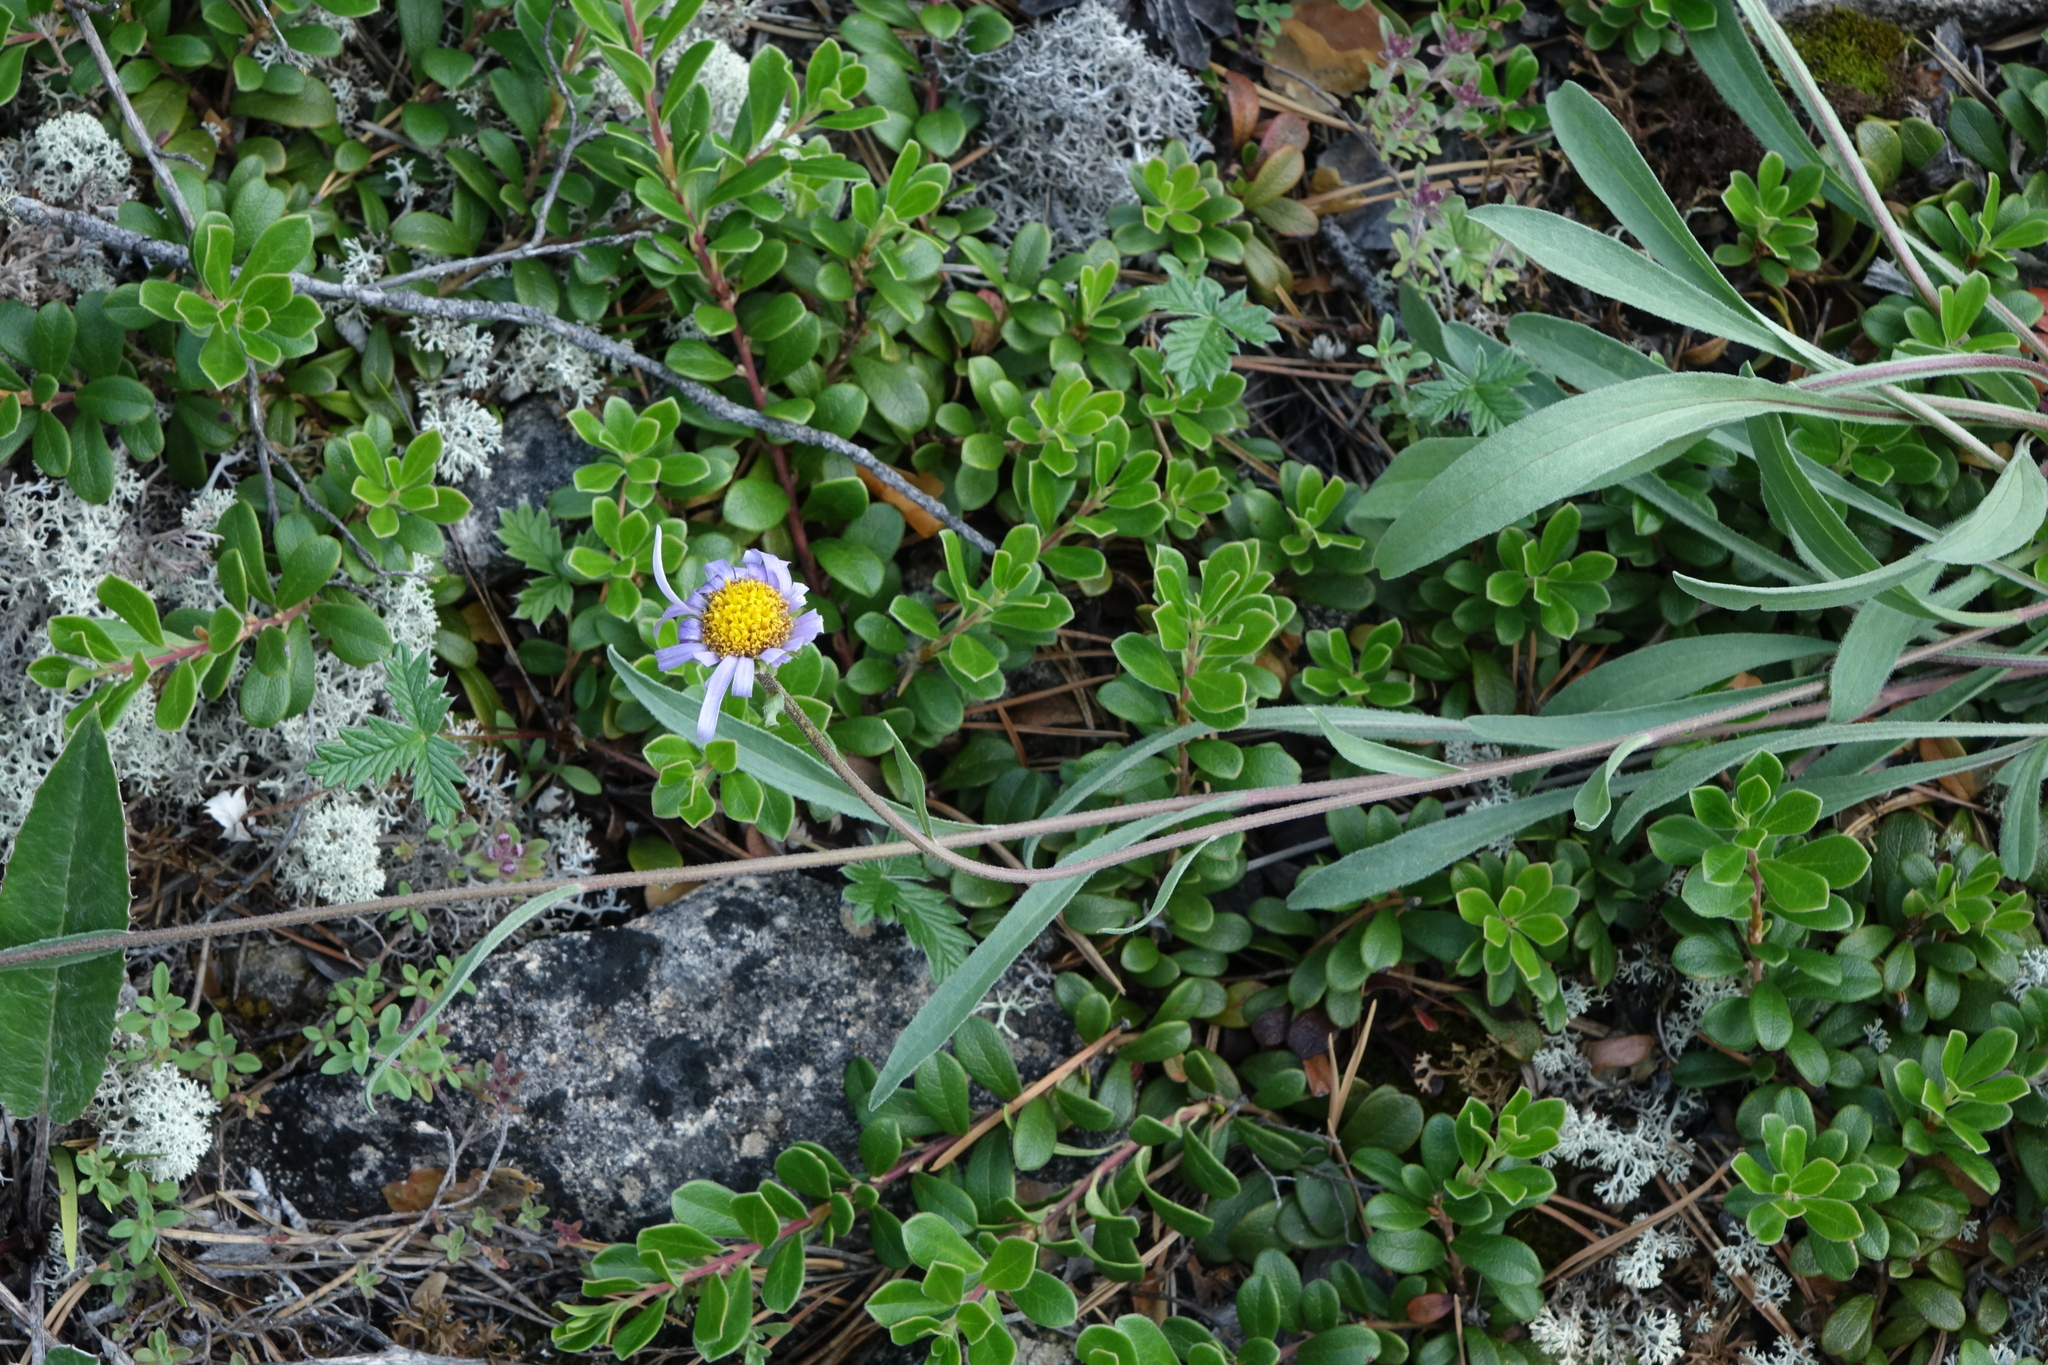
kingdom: Plantae
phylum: Tracheophyta
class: Magnoliopsida
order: Asterales
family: Asteraceae
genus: Aster
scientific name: Aster alpinus
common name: Alpine aster
